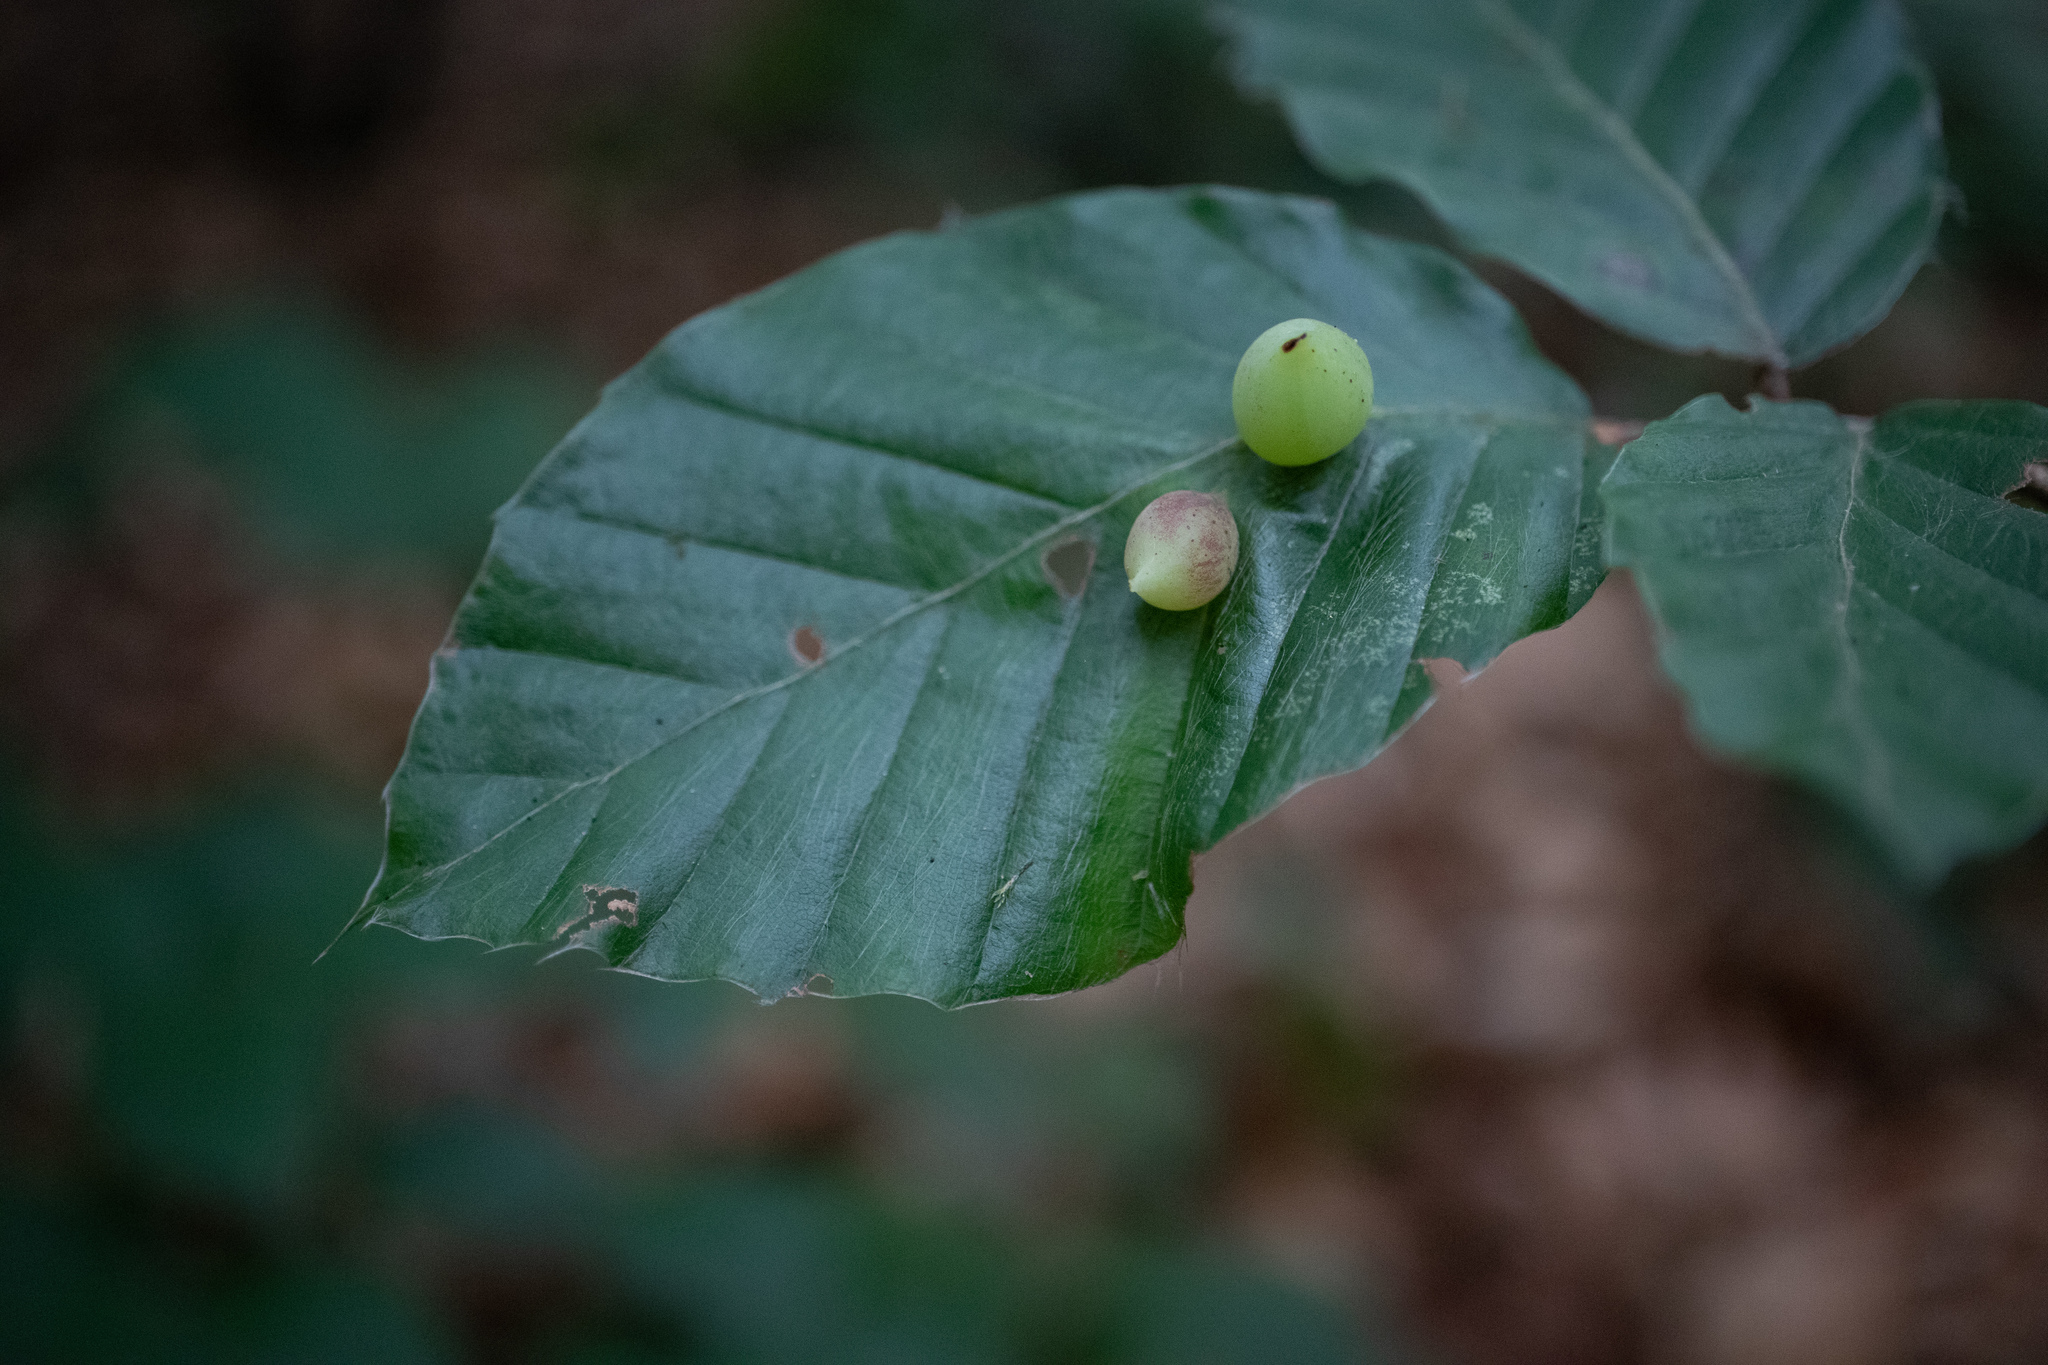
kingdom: Animalia
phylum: Arthropoda
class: Insecta
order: Diptera
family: Cecidomyiidae
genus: Mikiola
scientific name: Mikiola fagi
